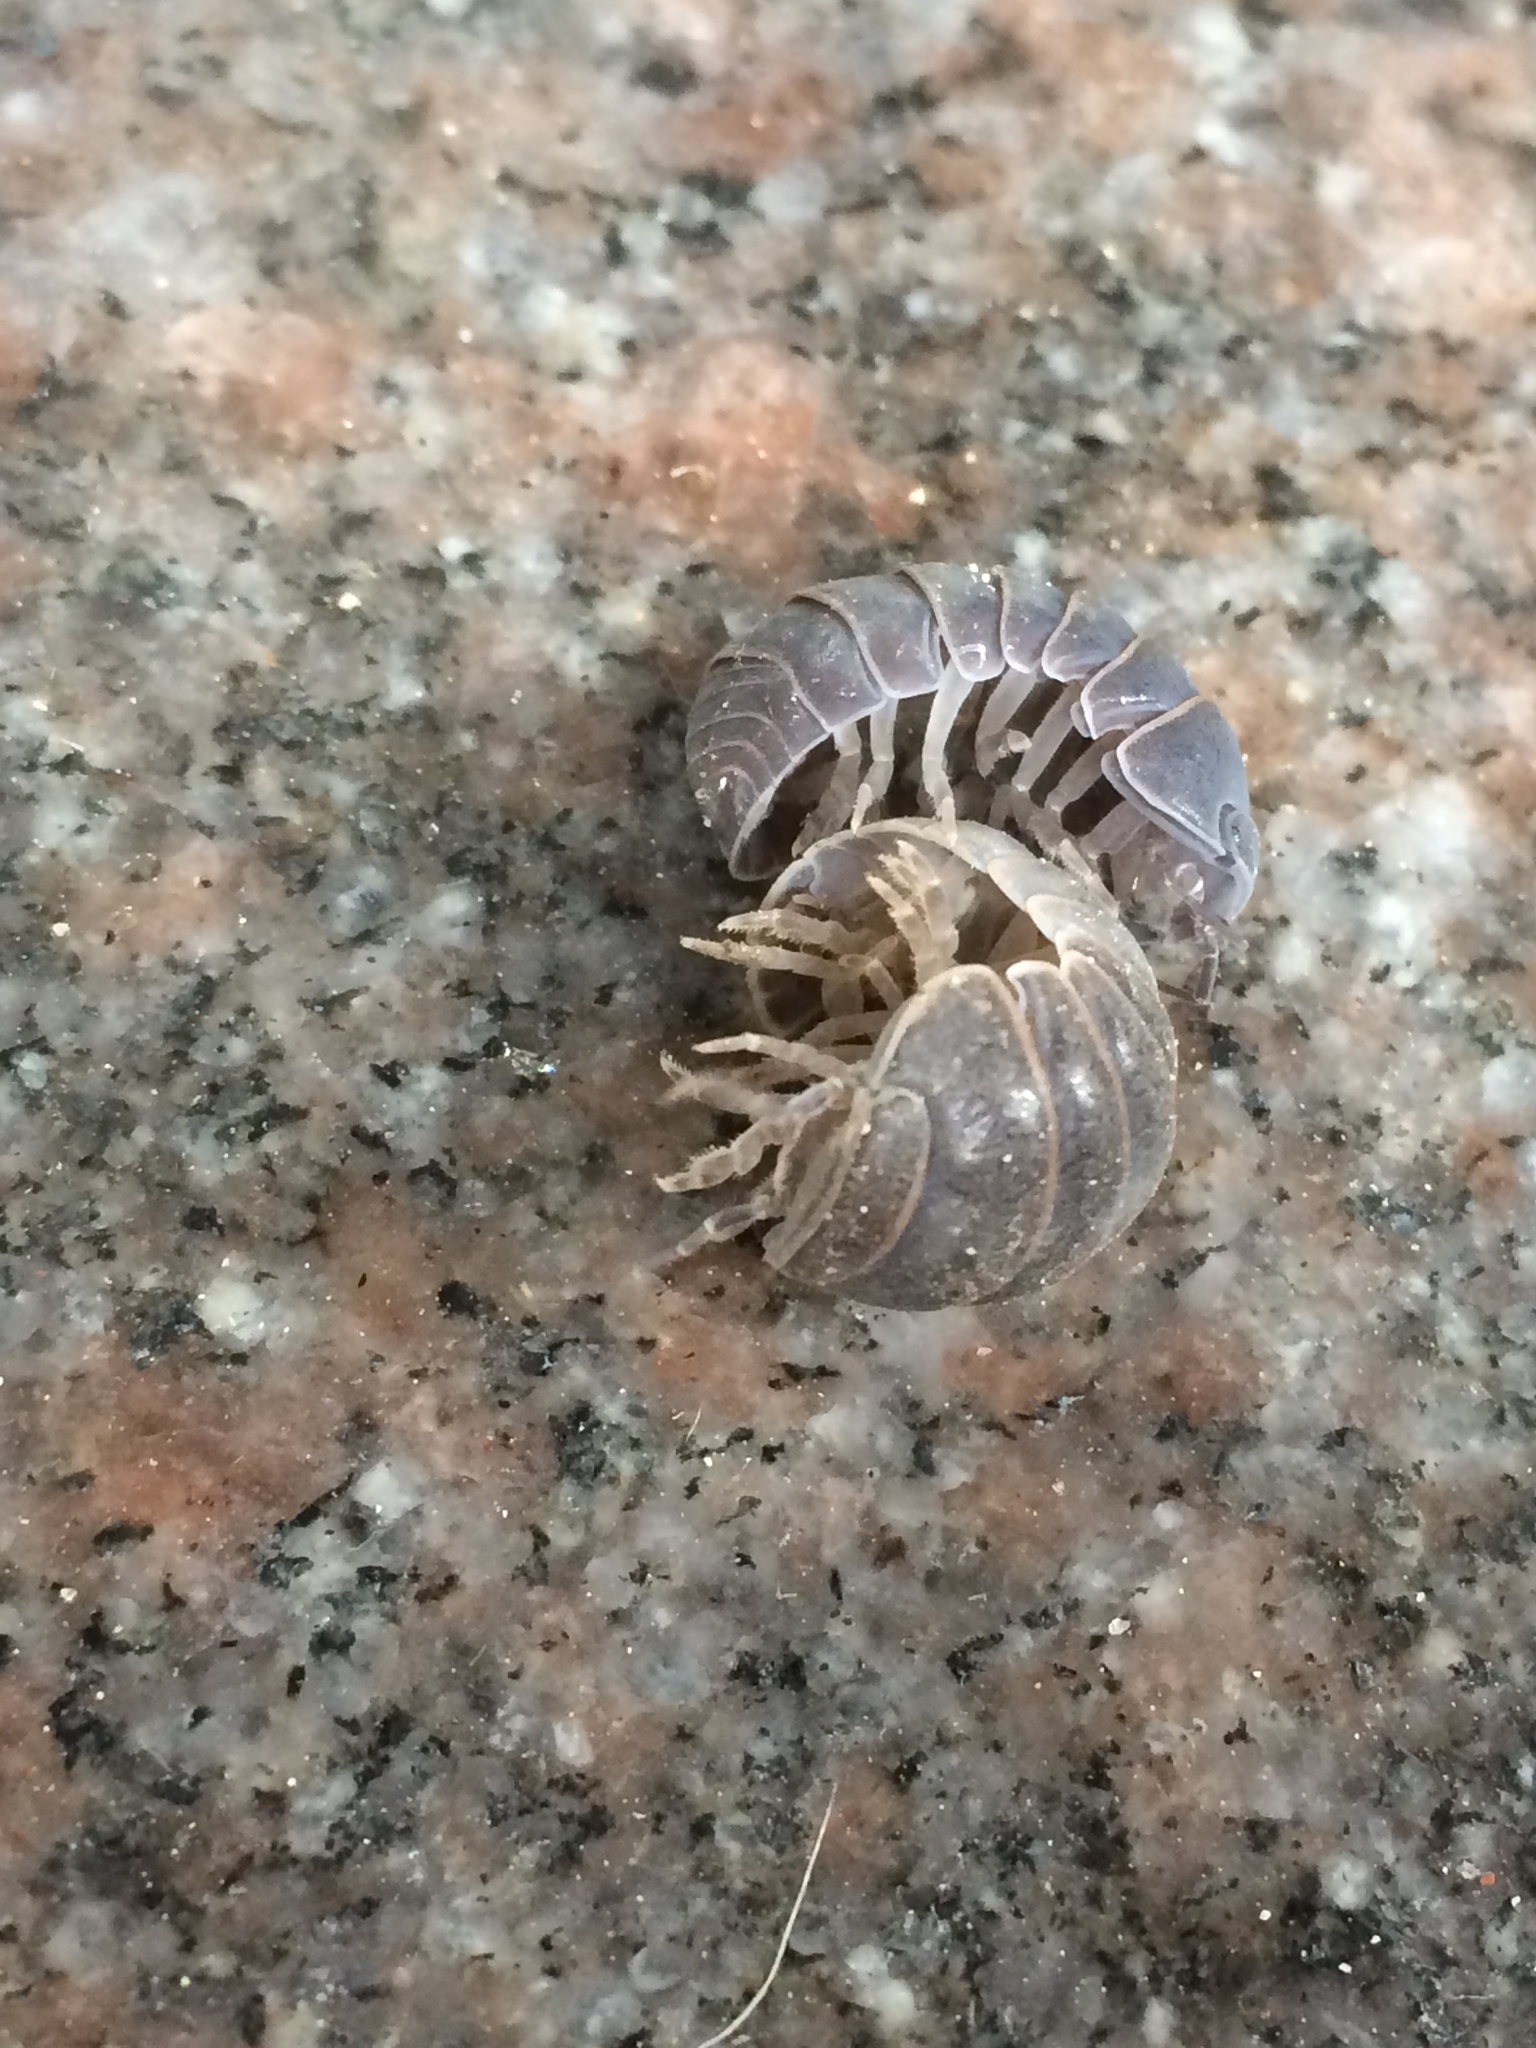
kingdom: Animalia
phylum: Arthropoda
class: Malacostraca
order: Isopoda
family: Armadillidae
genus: Armadillo
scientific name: Armadillo officinalis
